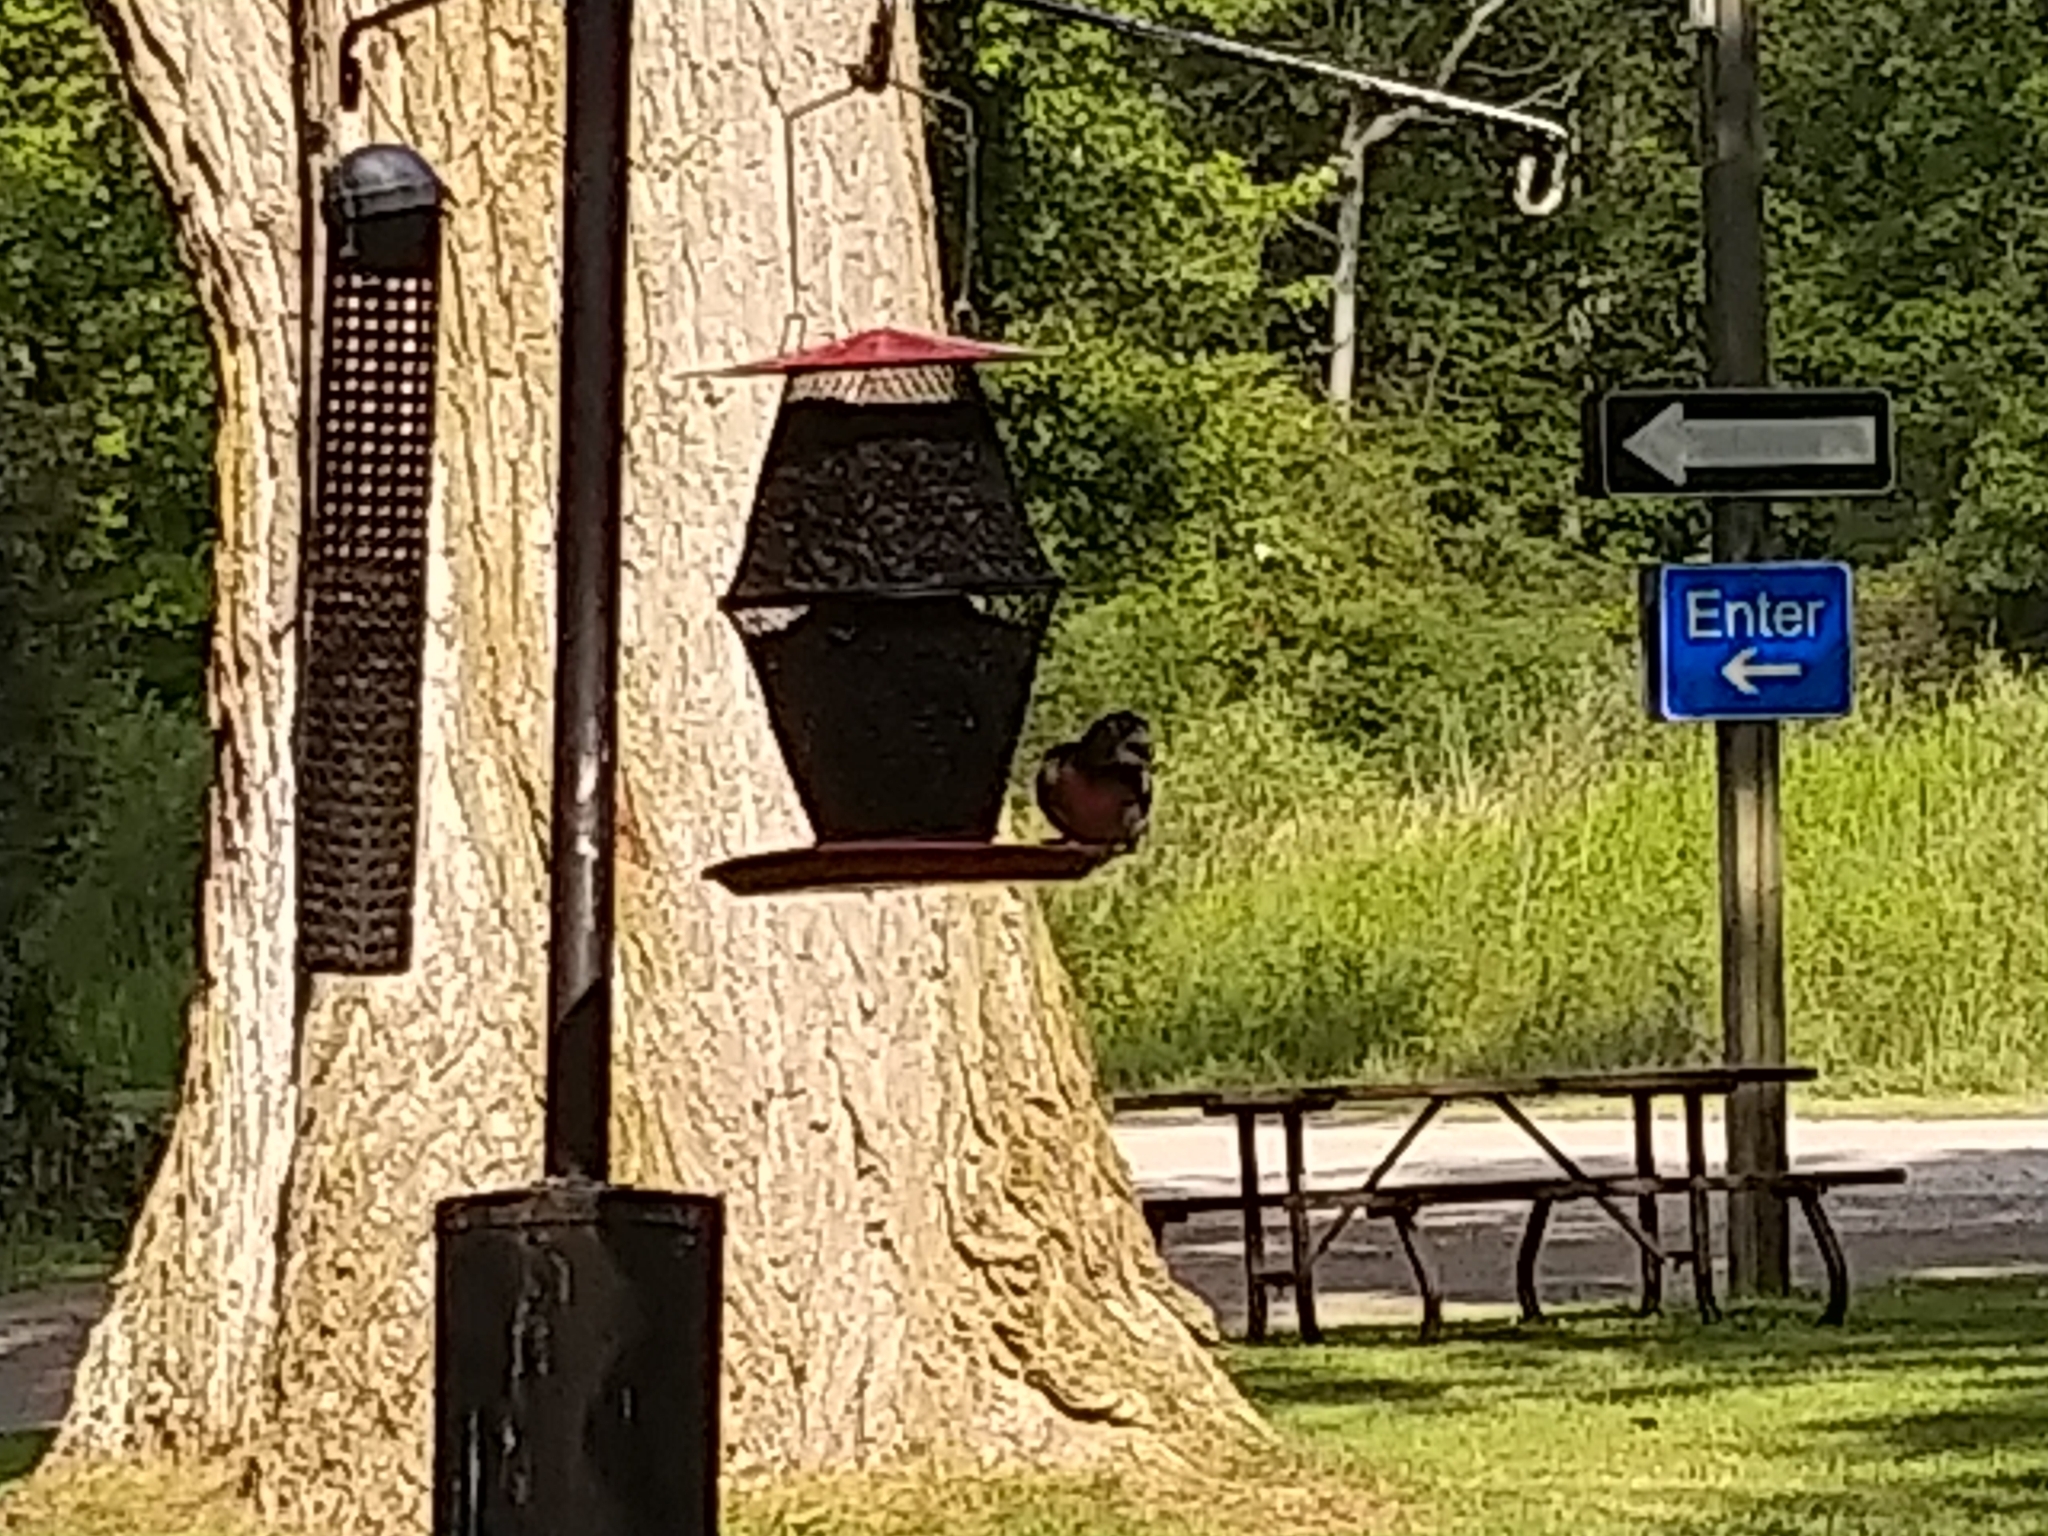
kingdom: Animalia
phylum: Chordata
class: Aves
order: Passeriformes
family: Cardinalidae
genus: Pheucticus
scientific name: Pheucticus ludovicianus
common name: Rose-breasted grosbeak
